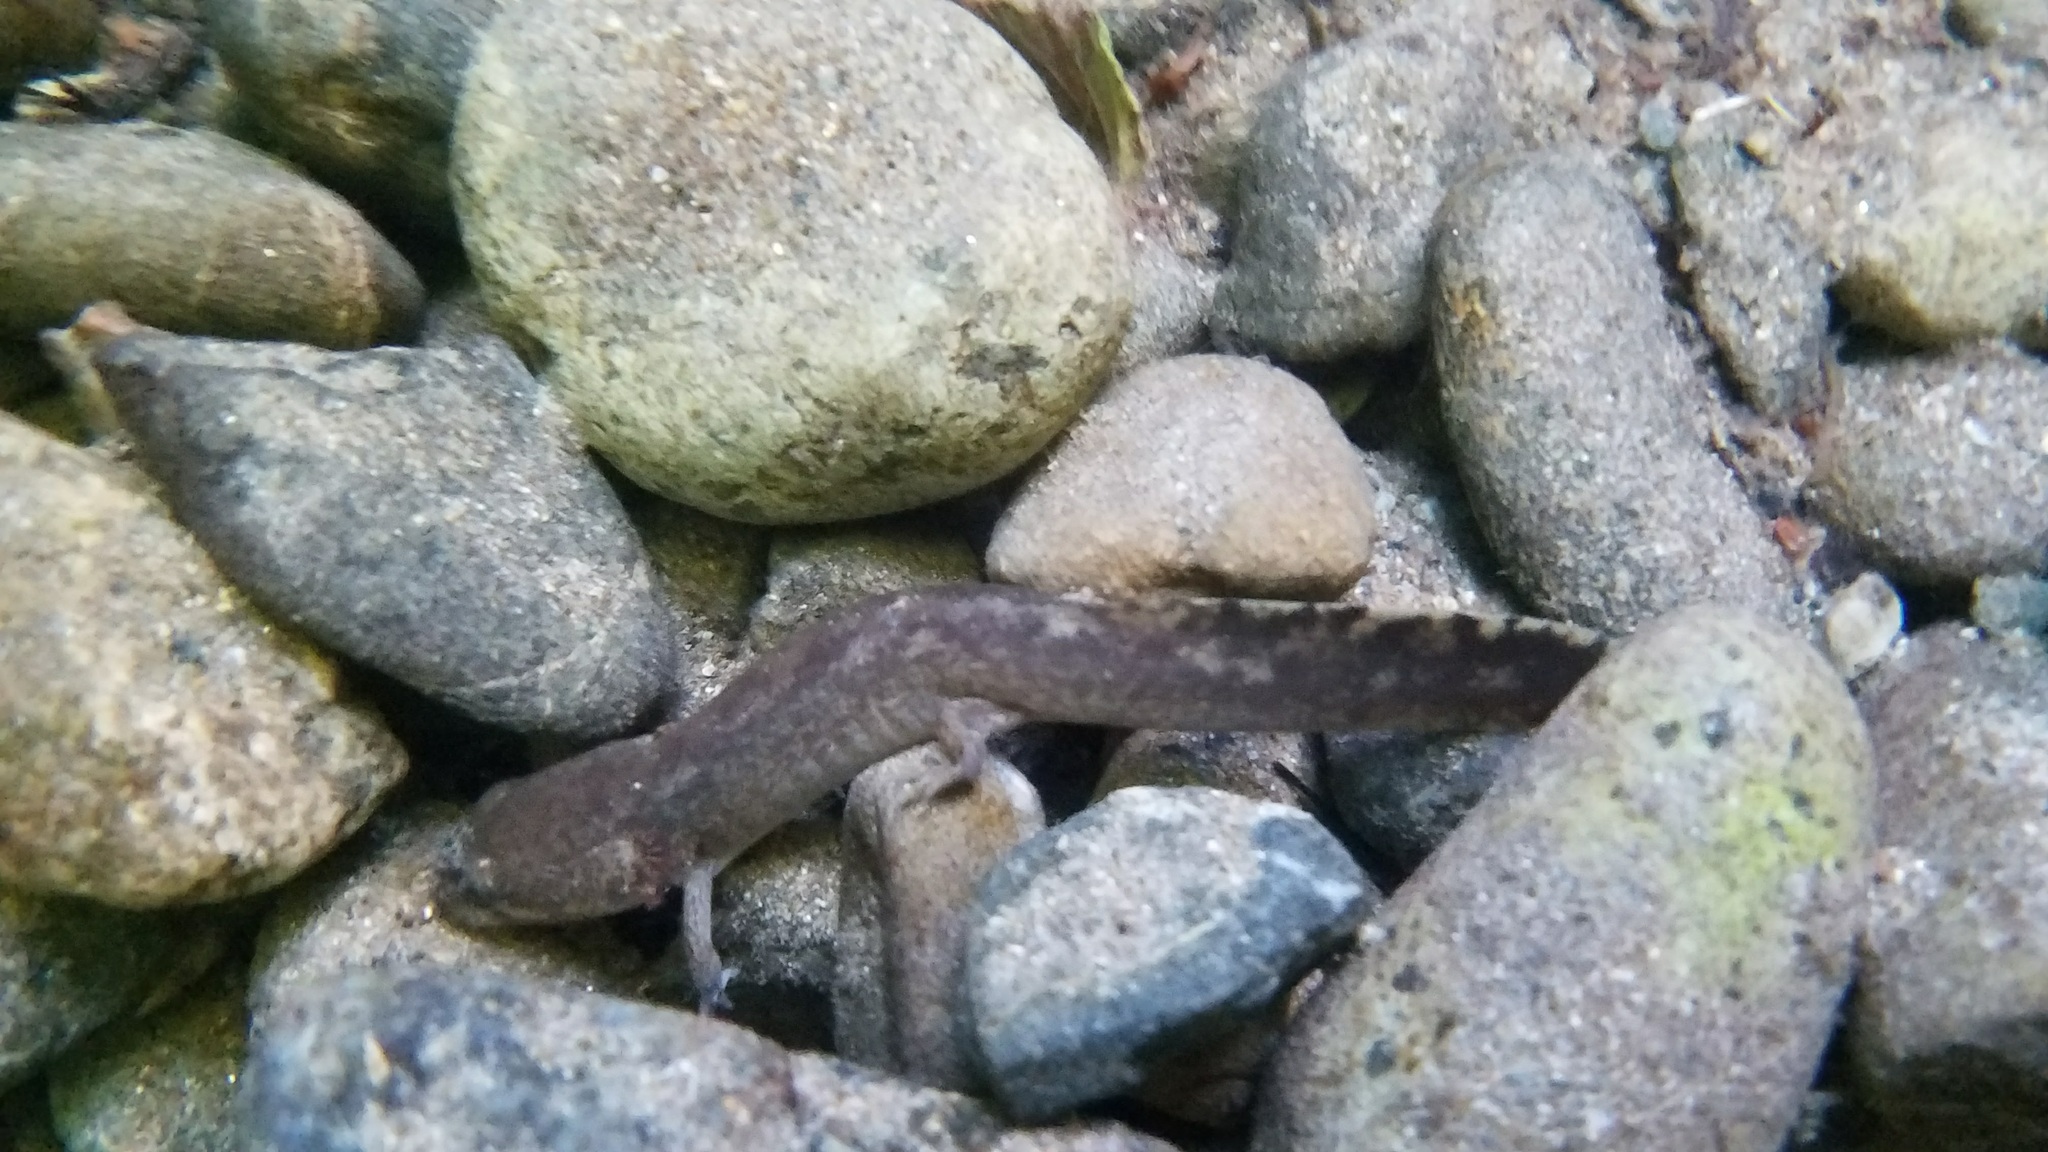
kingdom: Animalia
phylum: Chordata
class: Amphibia
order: Caudata
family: Ambystomatidae
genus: Dicamptodon
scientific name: Dicamptodon tenebrosus
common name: Coastal giant salamander
